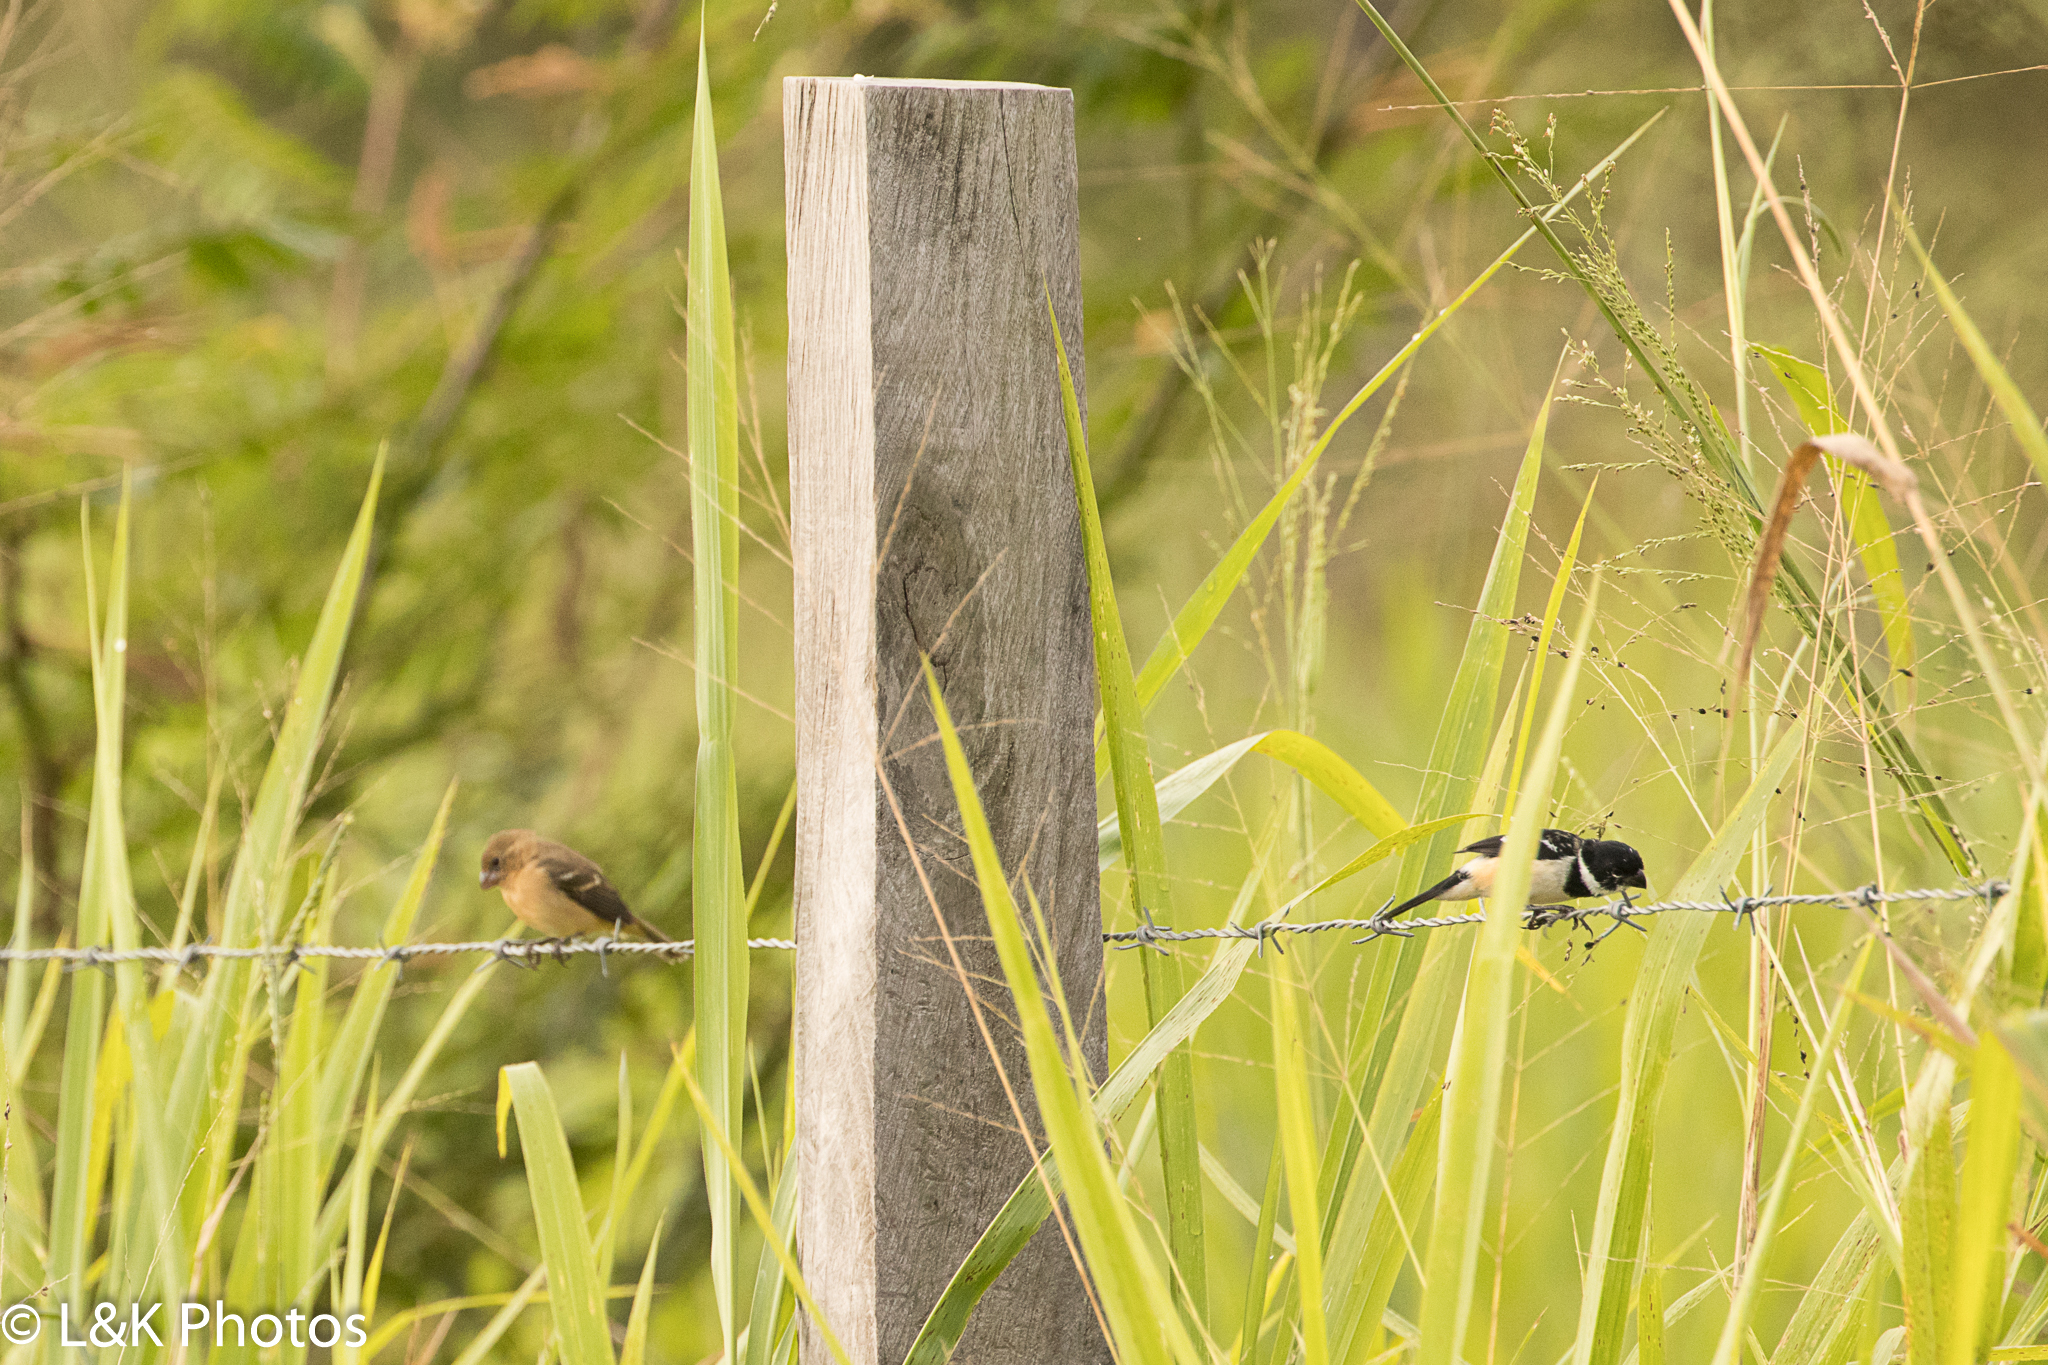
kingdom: Animalia
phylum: Chordata
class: Aves
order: Passeriformes
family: Thraupidae
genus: Sporophila
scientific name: Sporophila morelleti
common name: Morelet's seedeater
